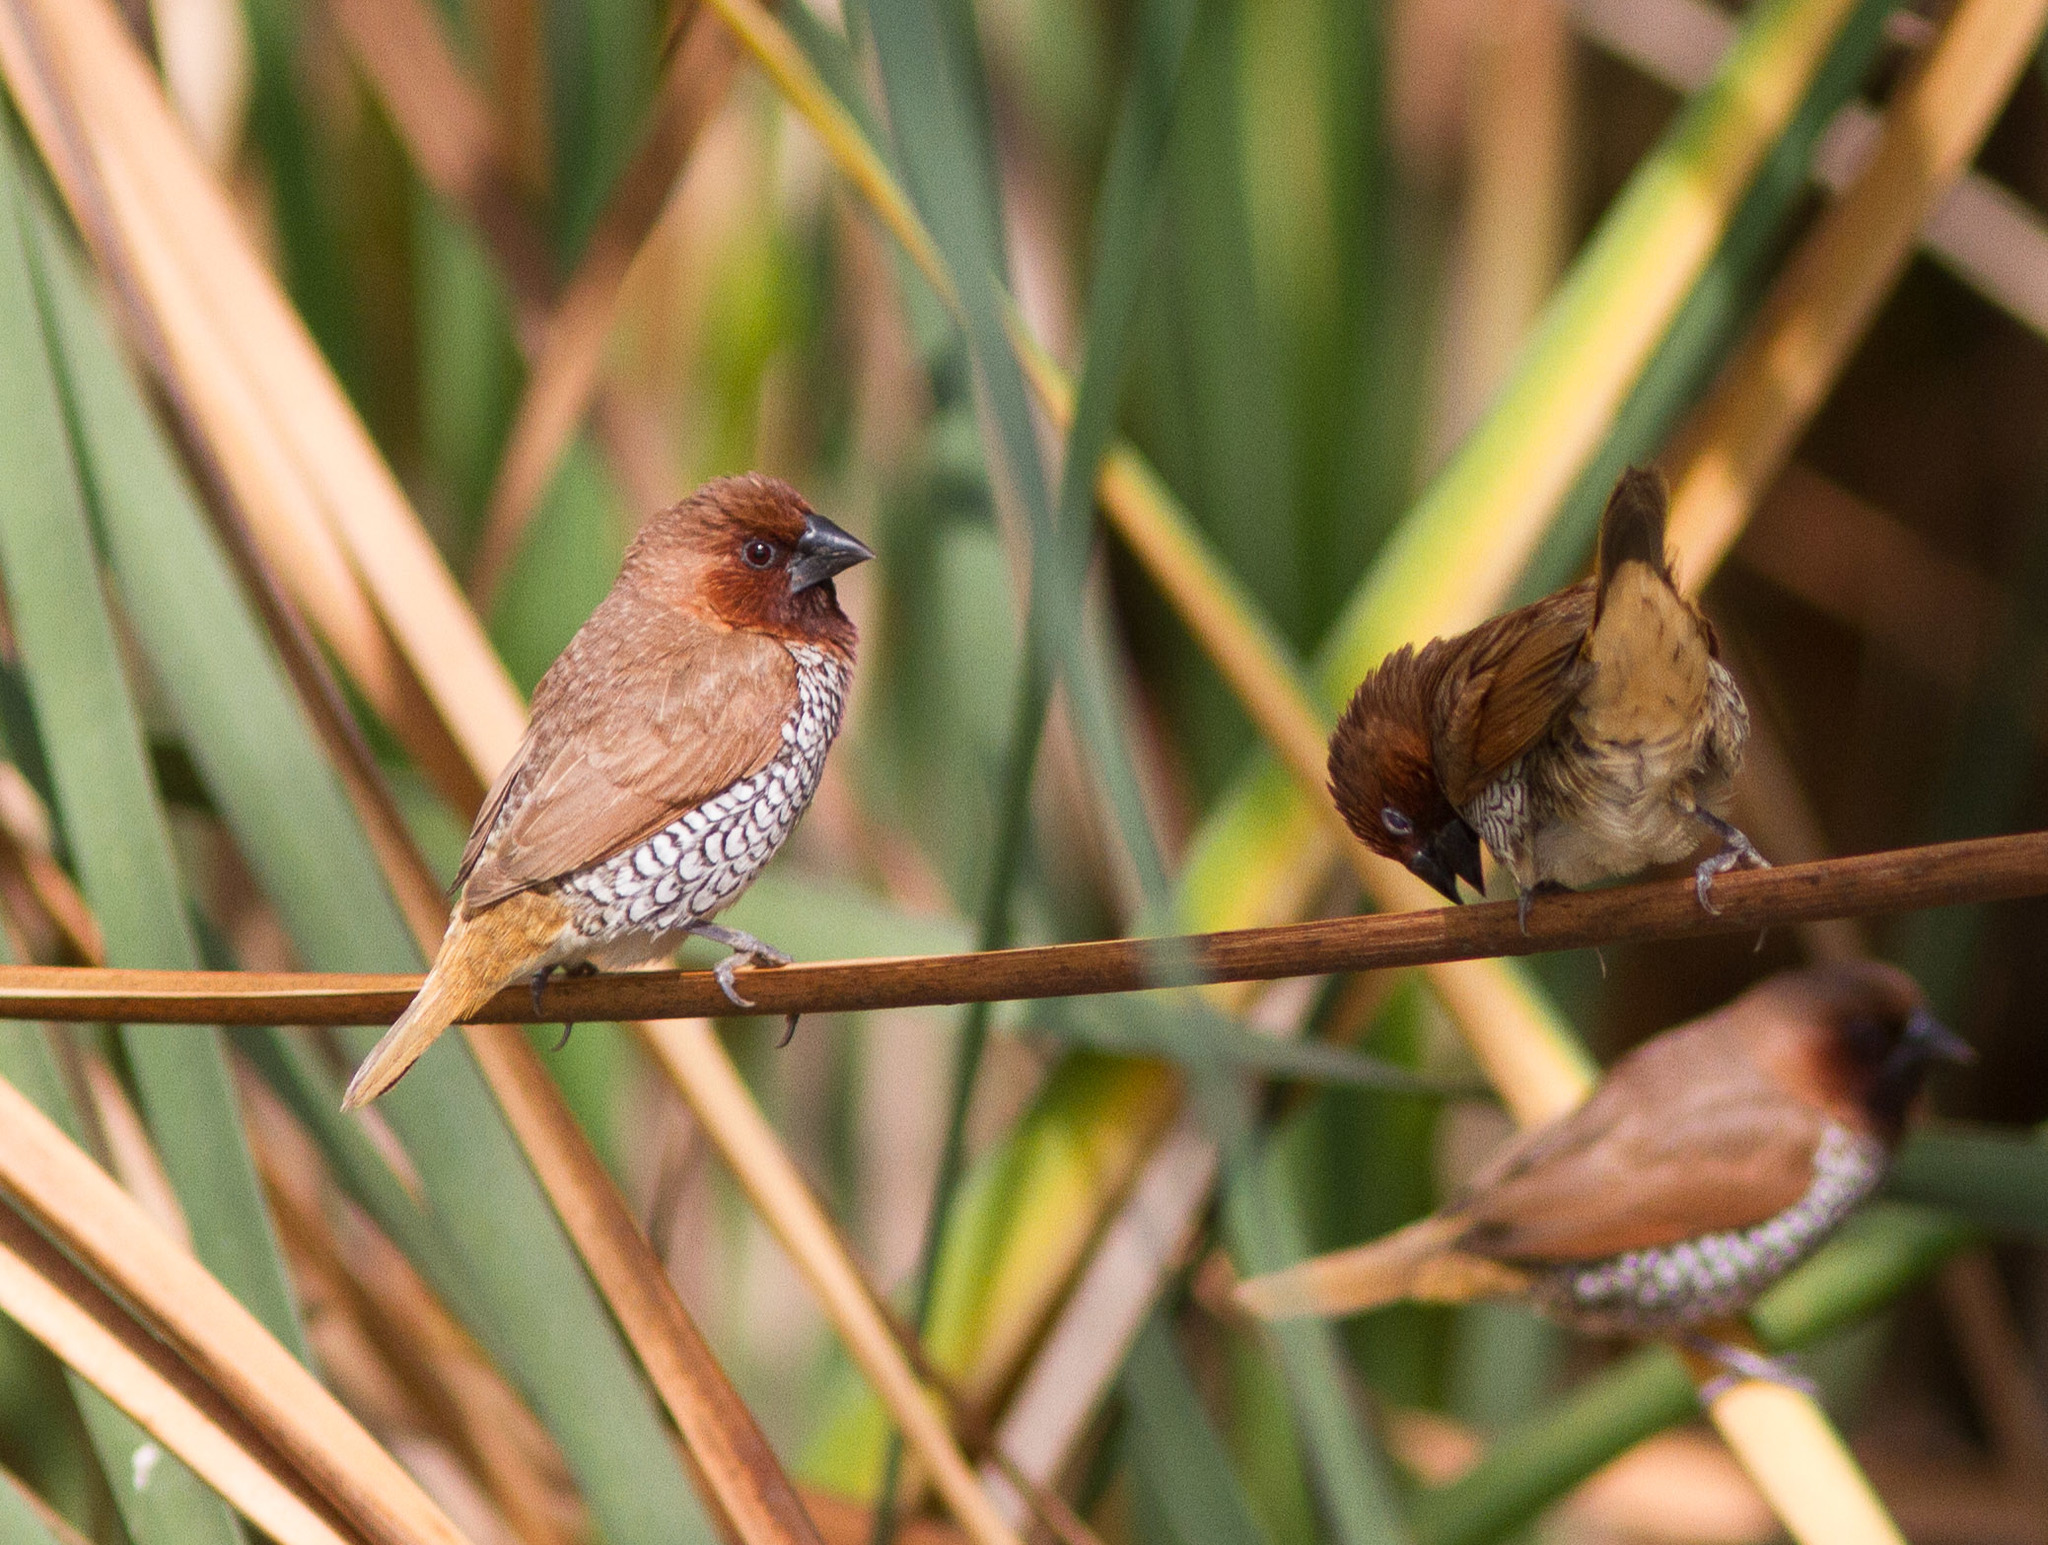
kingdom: Animalia
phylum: Chordata
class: Aves
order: Passeriformes
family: Estrildidae
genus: Lonchura
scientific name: Lonchura punctulata
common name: Scaly-breasted munia
